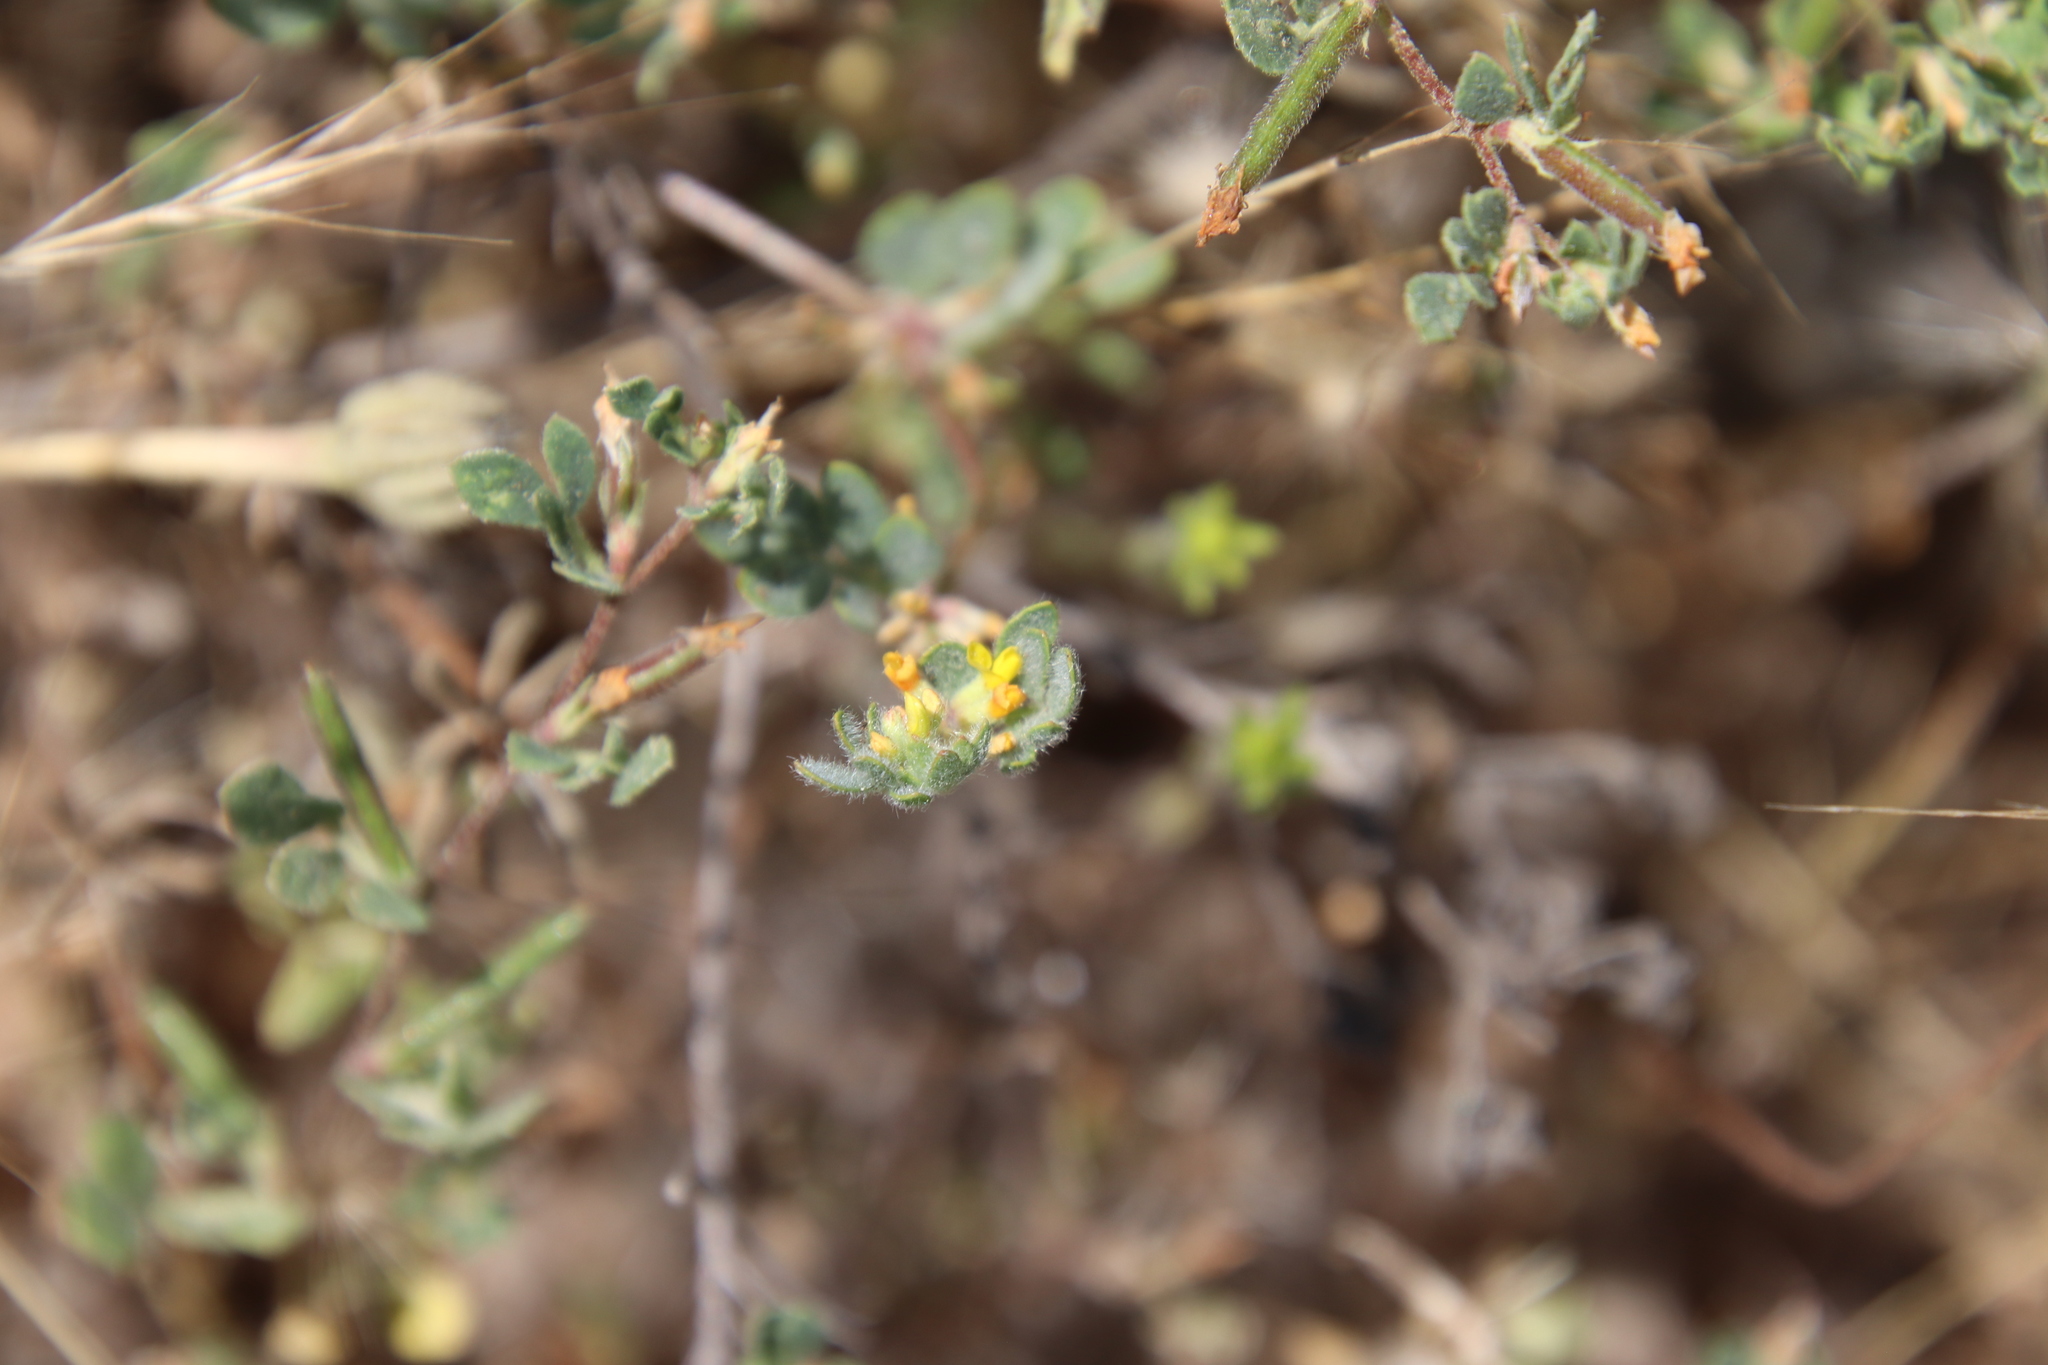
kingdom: Plantae
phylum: Tracheophyta
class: Magnoliopsida
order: Fabales
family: Fabaceae
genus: Acmispon
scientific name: Acmispon brachycarpus
